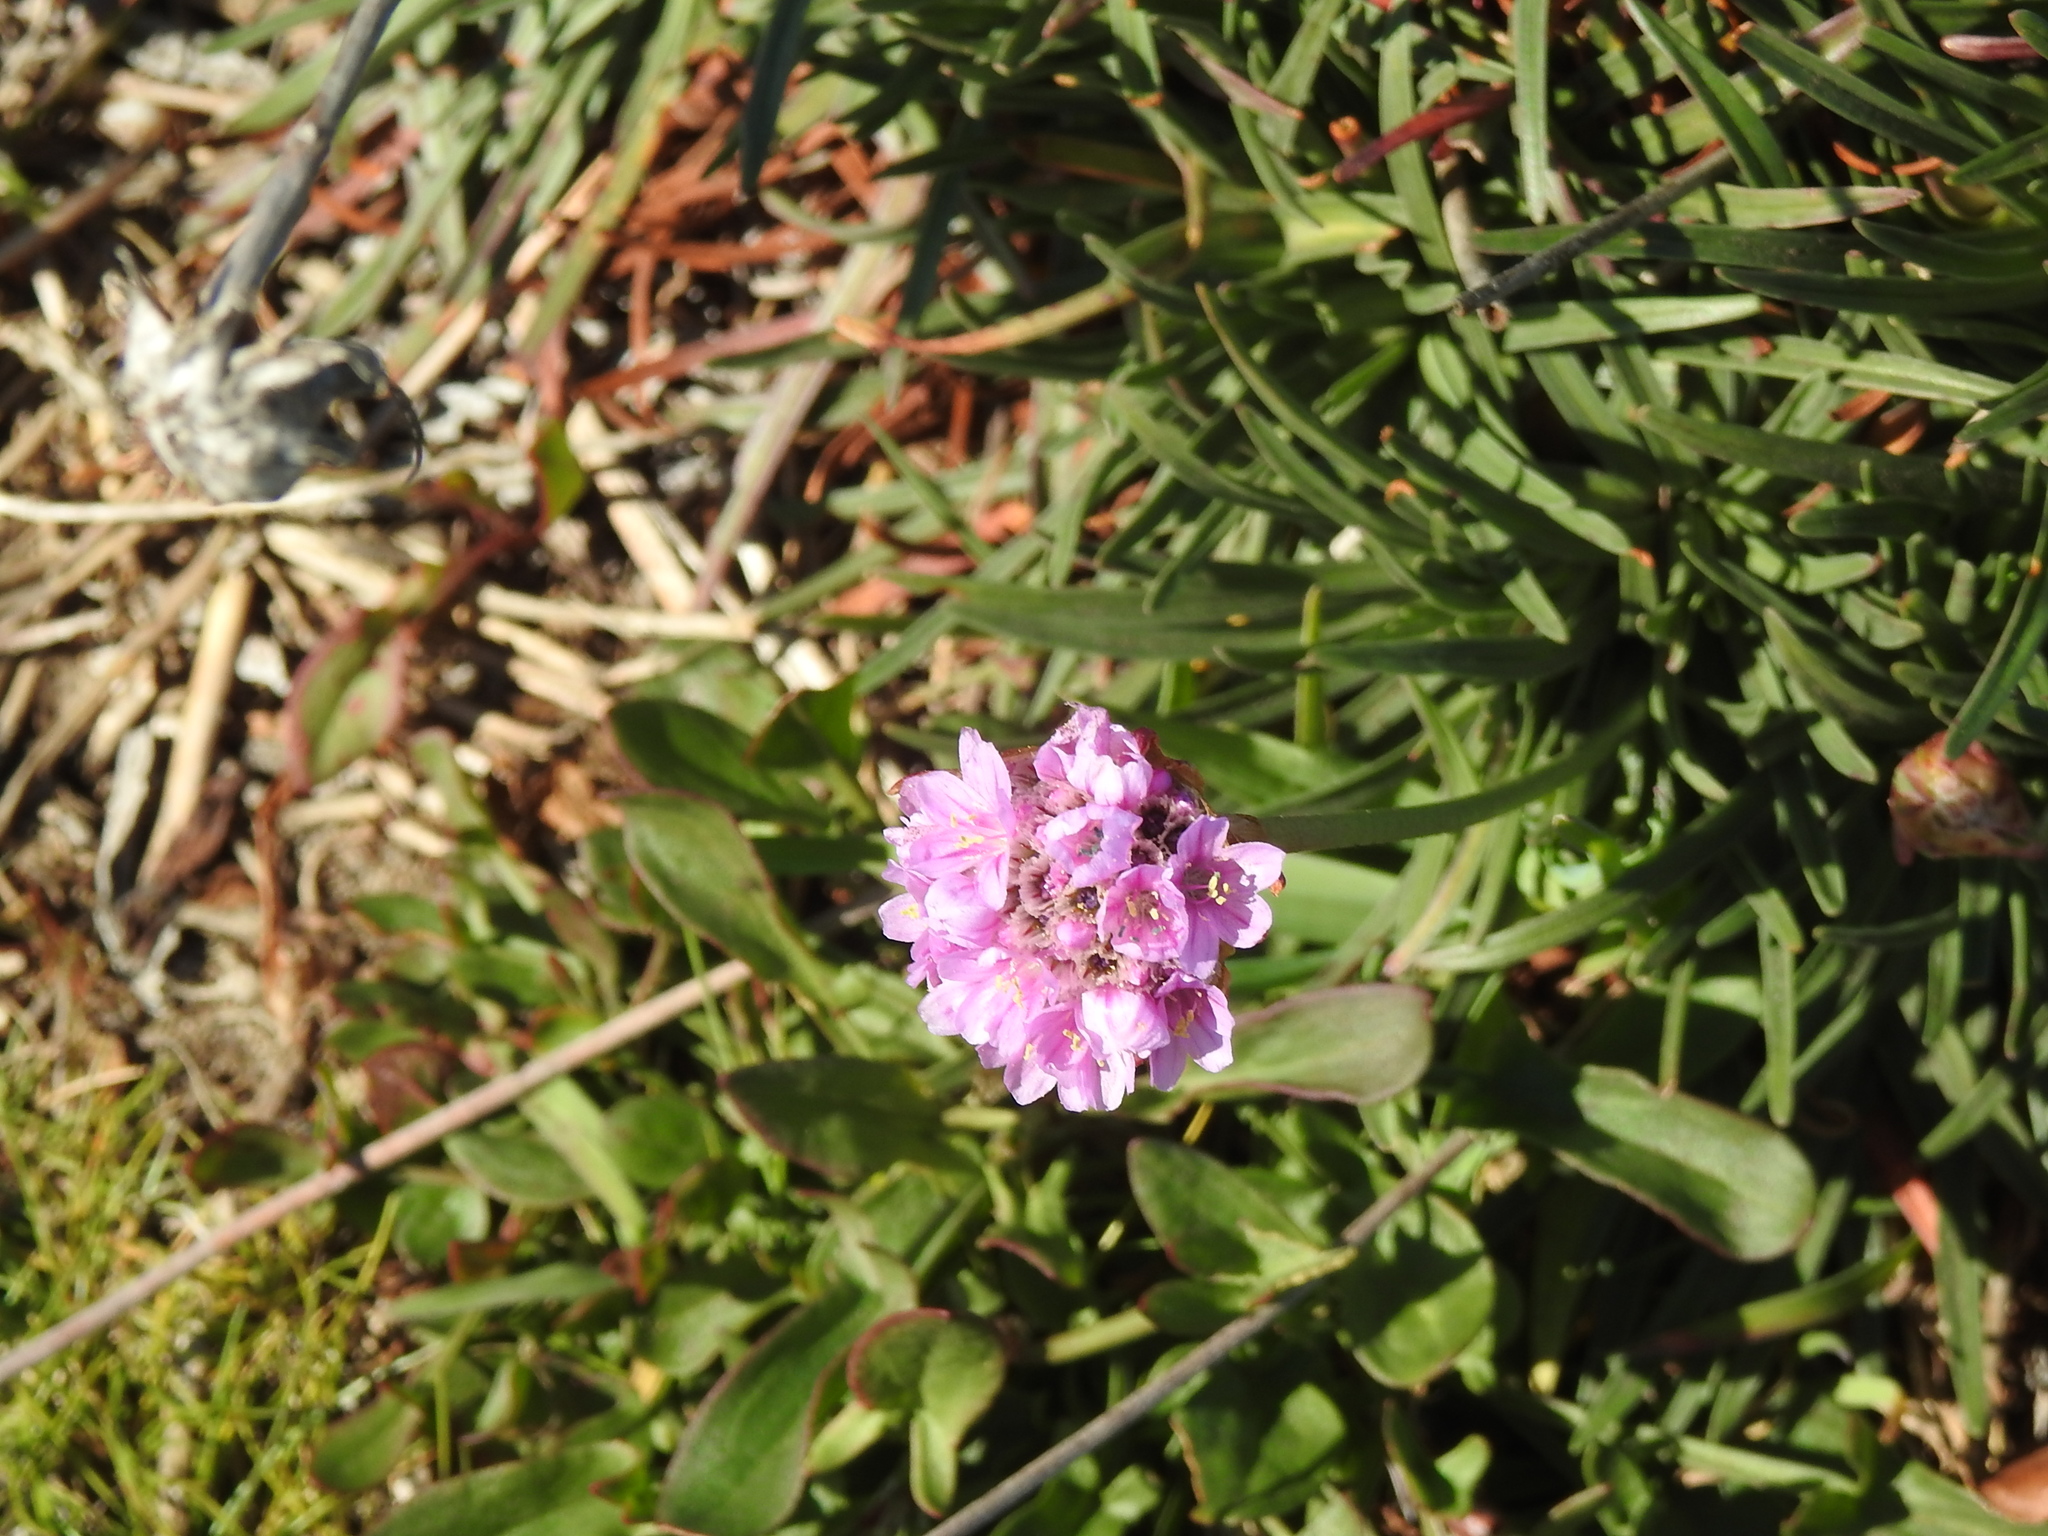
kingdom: Plantae
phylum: Tracheophyta
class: Magnoliopsida
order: Caryophyllales
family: Plumbaginaceae
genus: Armeria
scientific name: Armeria maritima
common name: Thrift
